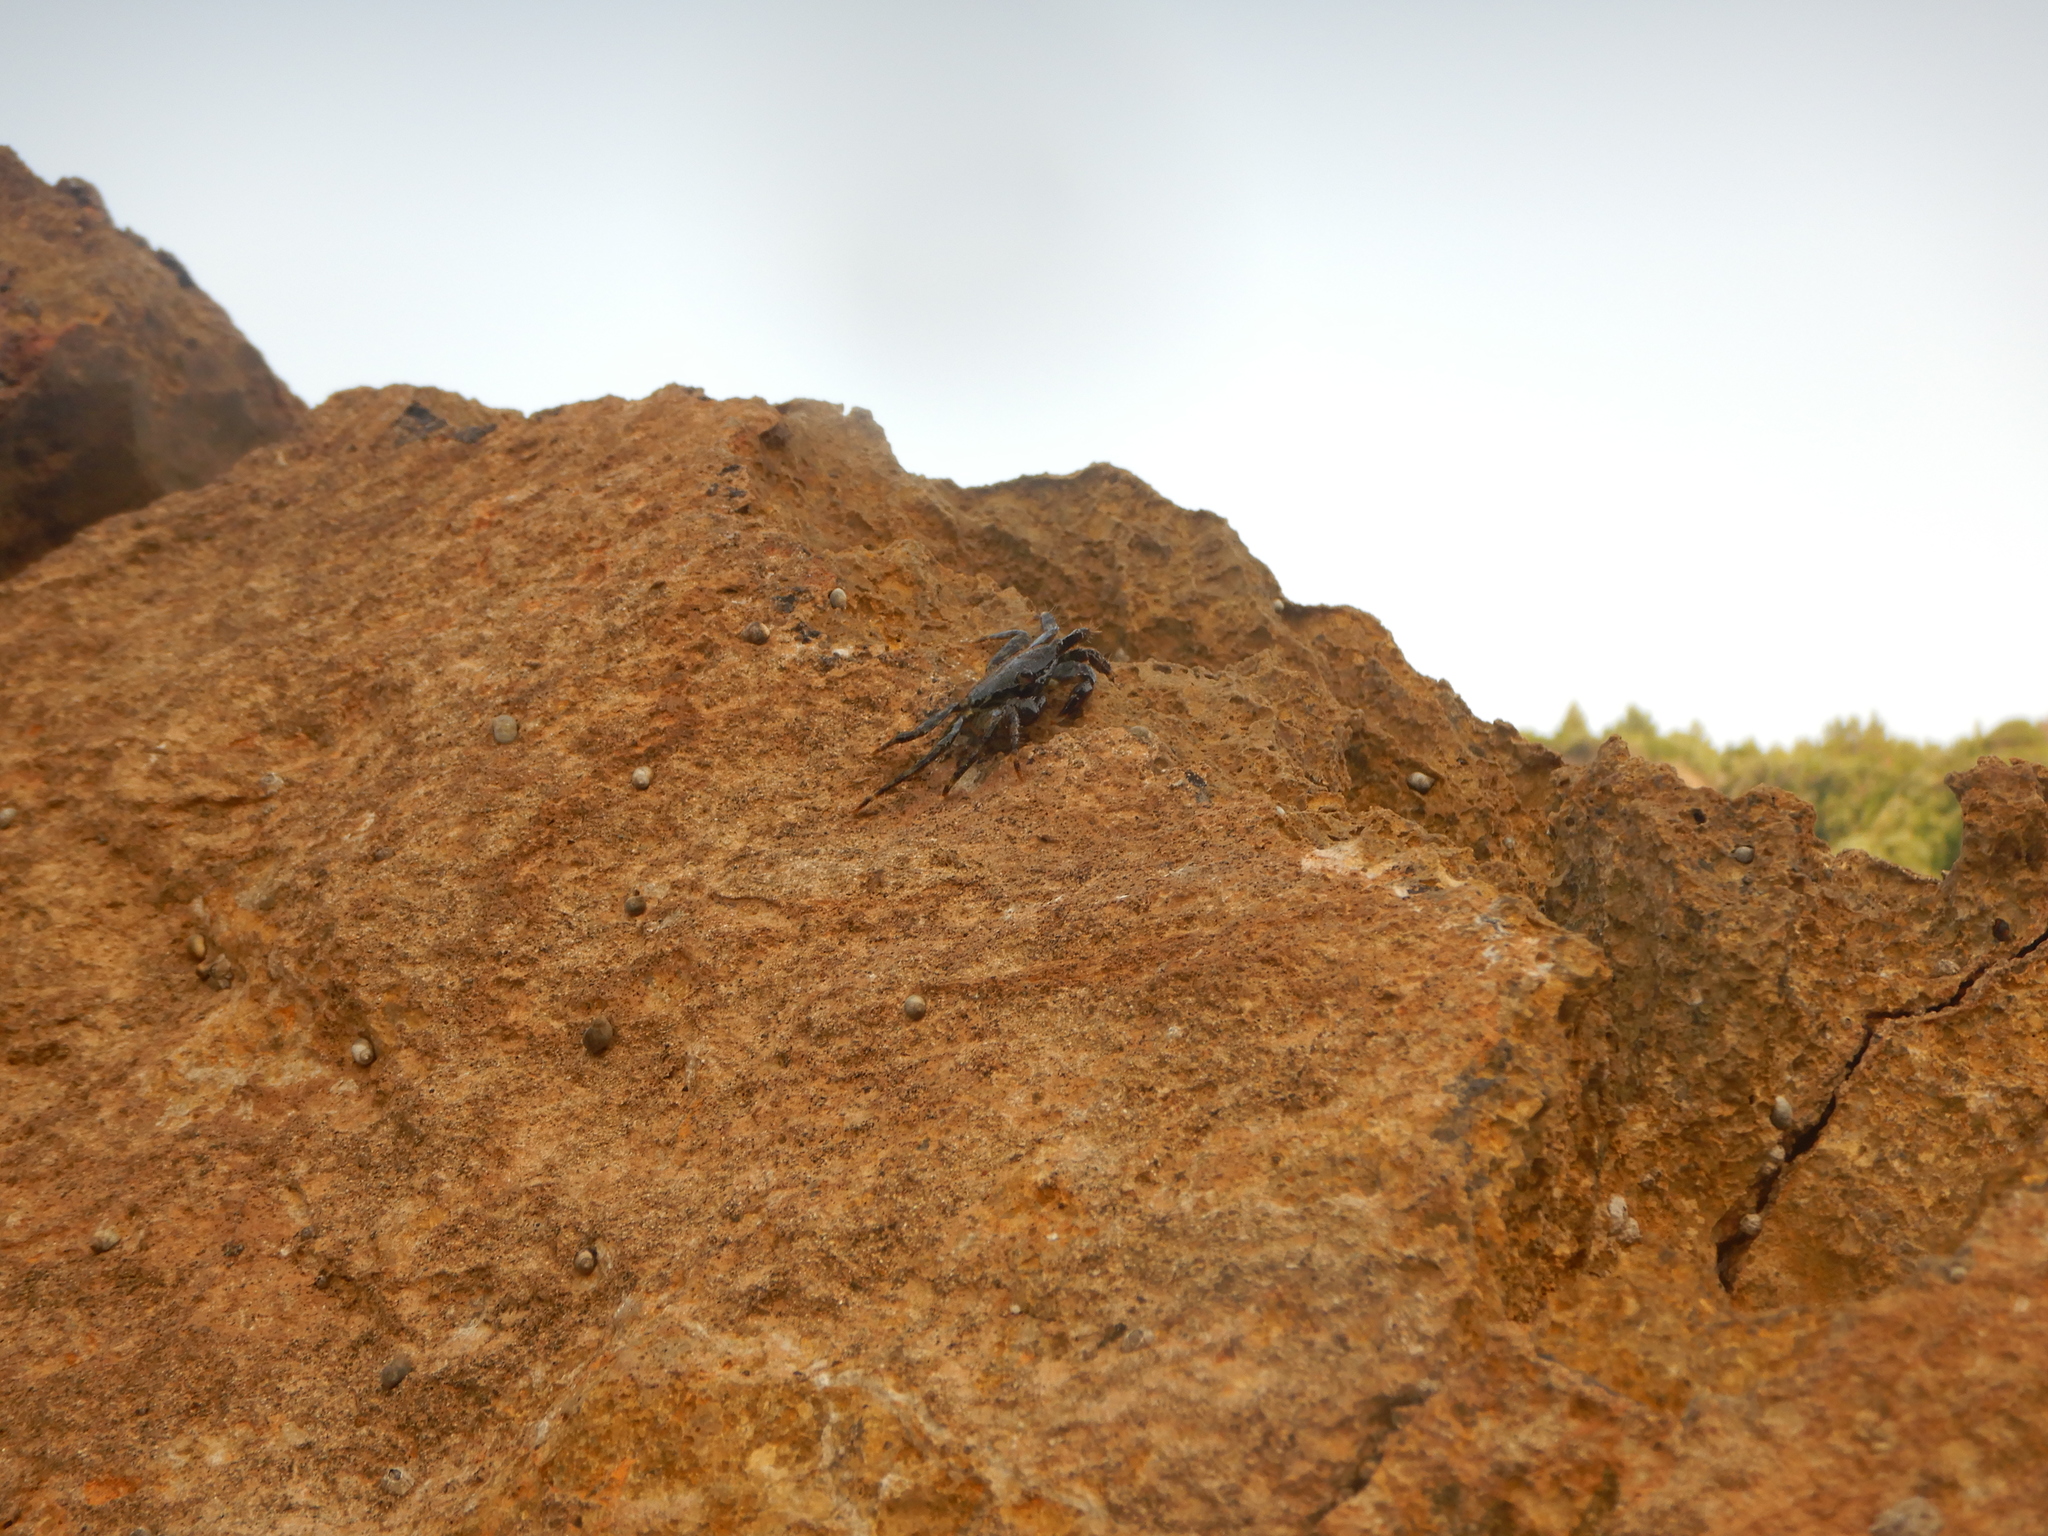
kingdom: Animalia
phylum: Arthropoda
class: Malacostraca
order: Decapoda
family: Grapsidae
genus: Pachygrapsus
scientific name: Pachygrapsus marmoratus
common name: Marbled rock crab
